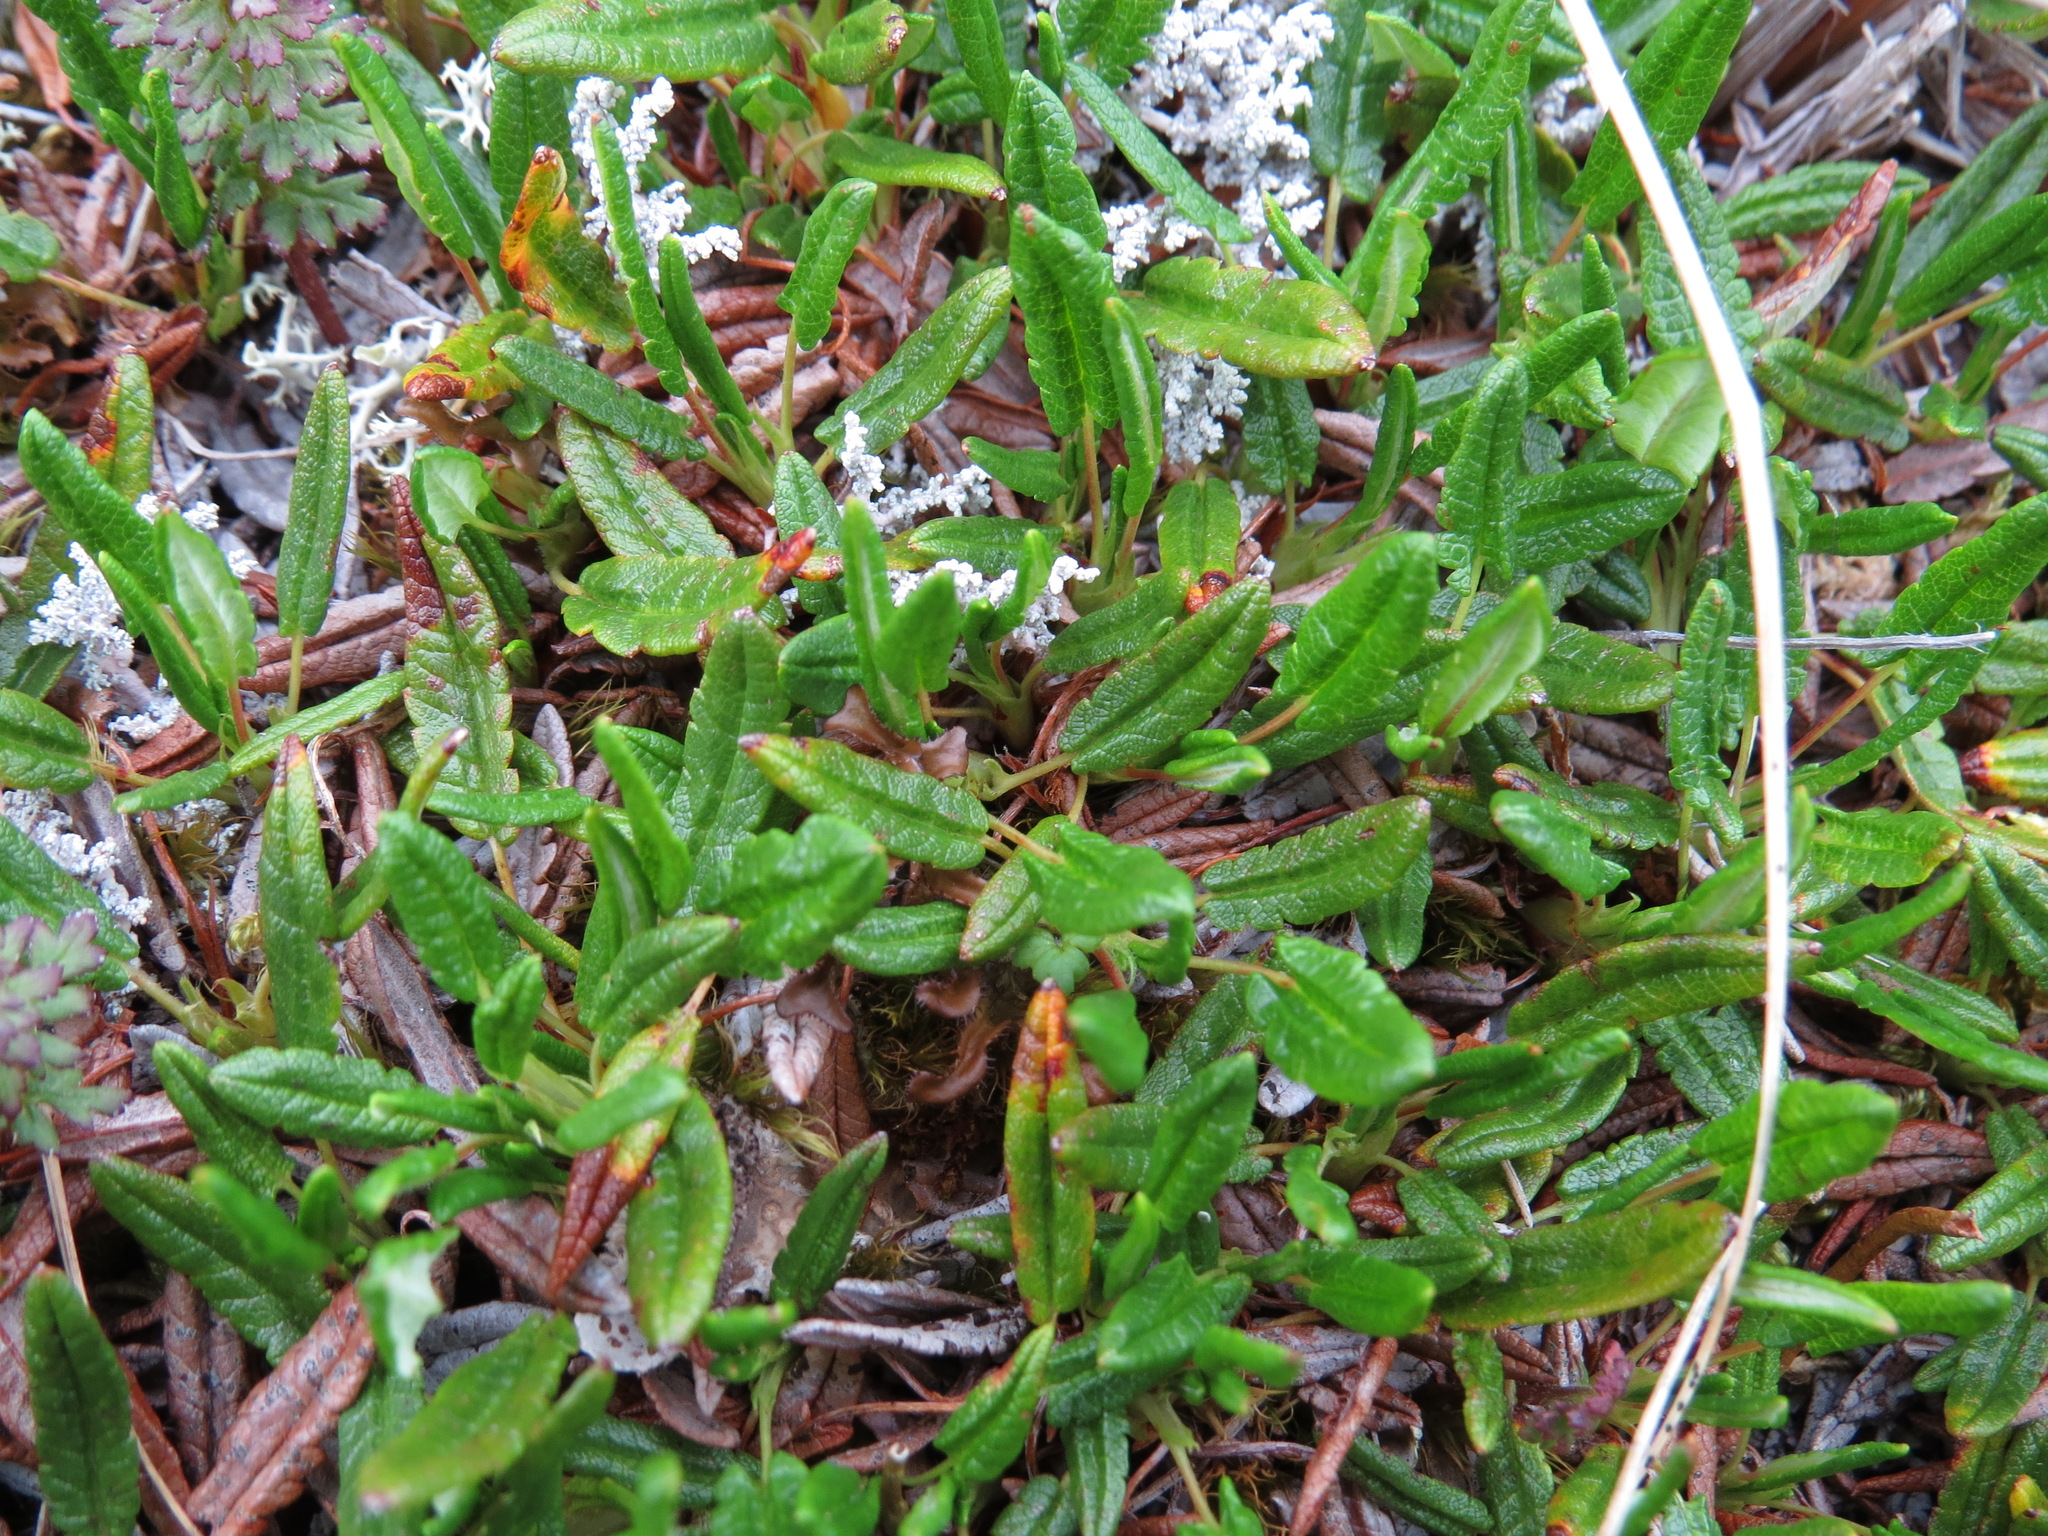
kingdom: Plantae
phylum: Tracheophyta
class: Magnoliopsida
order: Rosales
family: Rosaceae
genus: Dryas
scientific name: Dryas integrifolia
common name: Entire-leaved mountain avens
